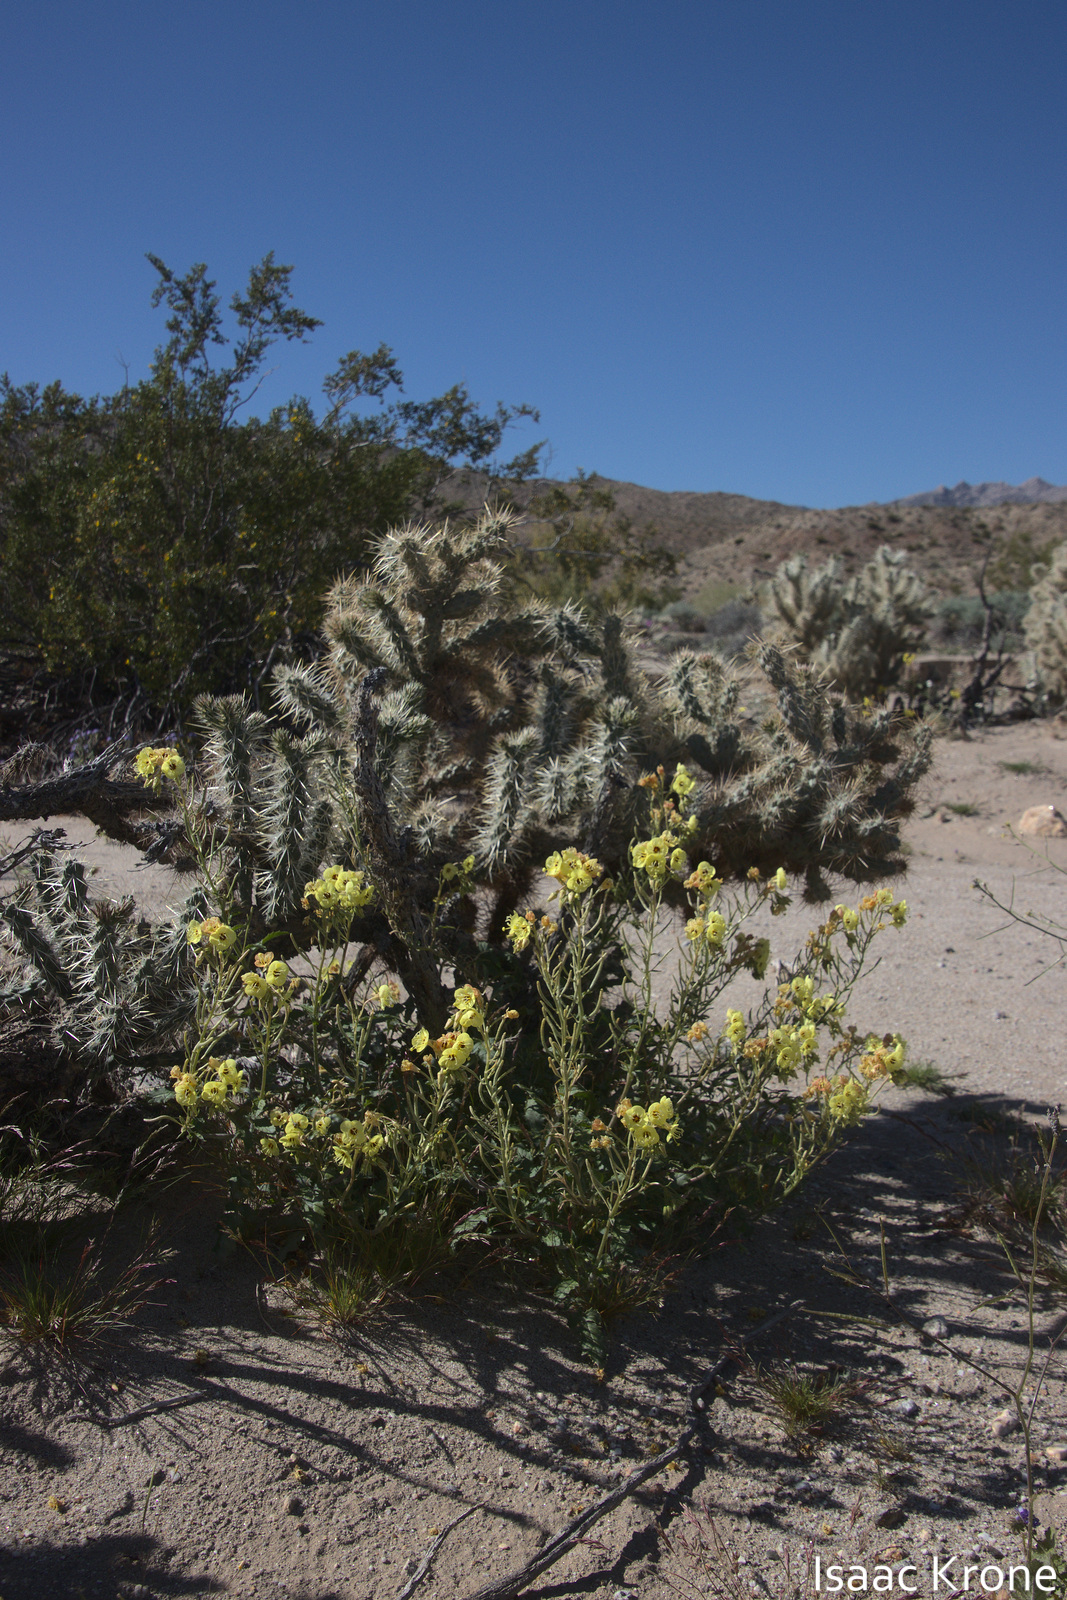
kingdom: Plantae
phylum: Tracheophyta
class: Magnoliopsida
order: Myrtales
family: Onagraceae
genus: Chylismia
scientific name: Chylismia claviformis
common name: Browneyes
